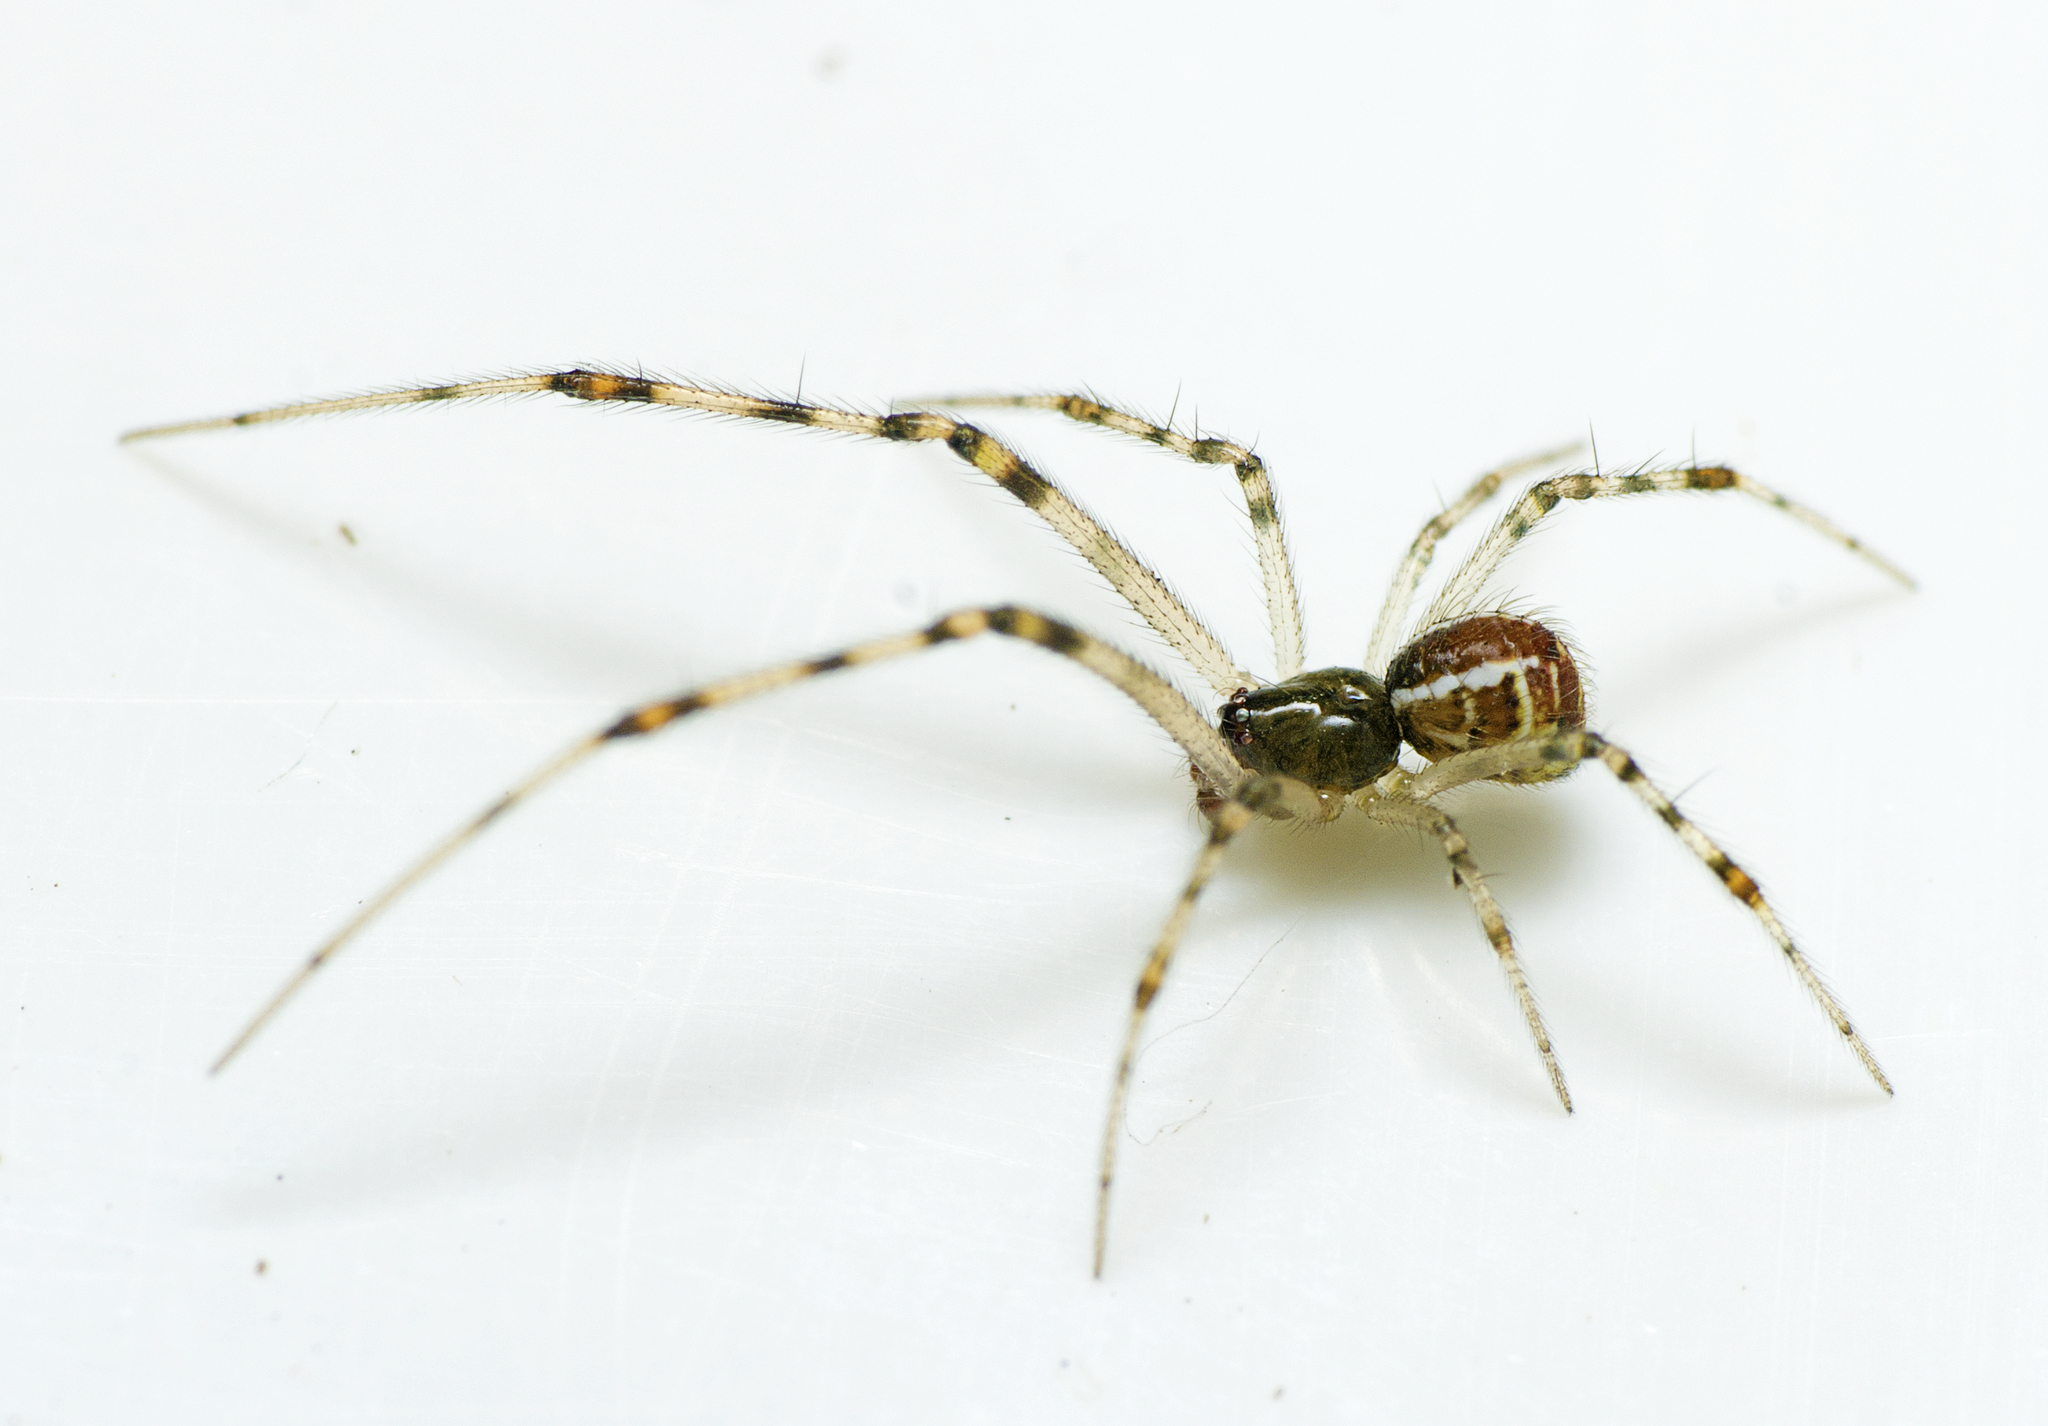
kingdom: Animalia
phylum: Arthropoda
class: Arachnida
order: Araneae
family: Theridiidae
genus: Theridion
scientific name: Theridion pyramidale
